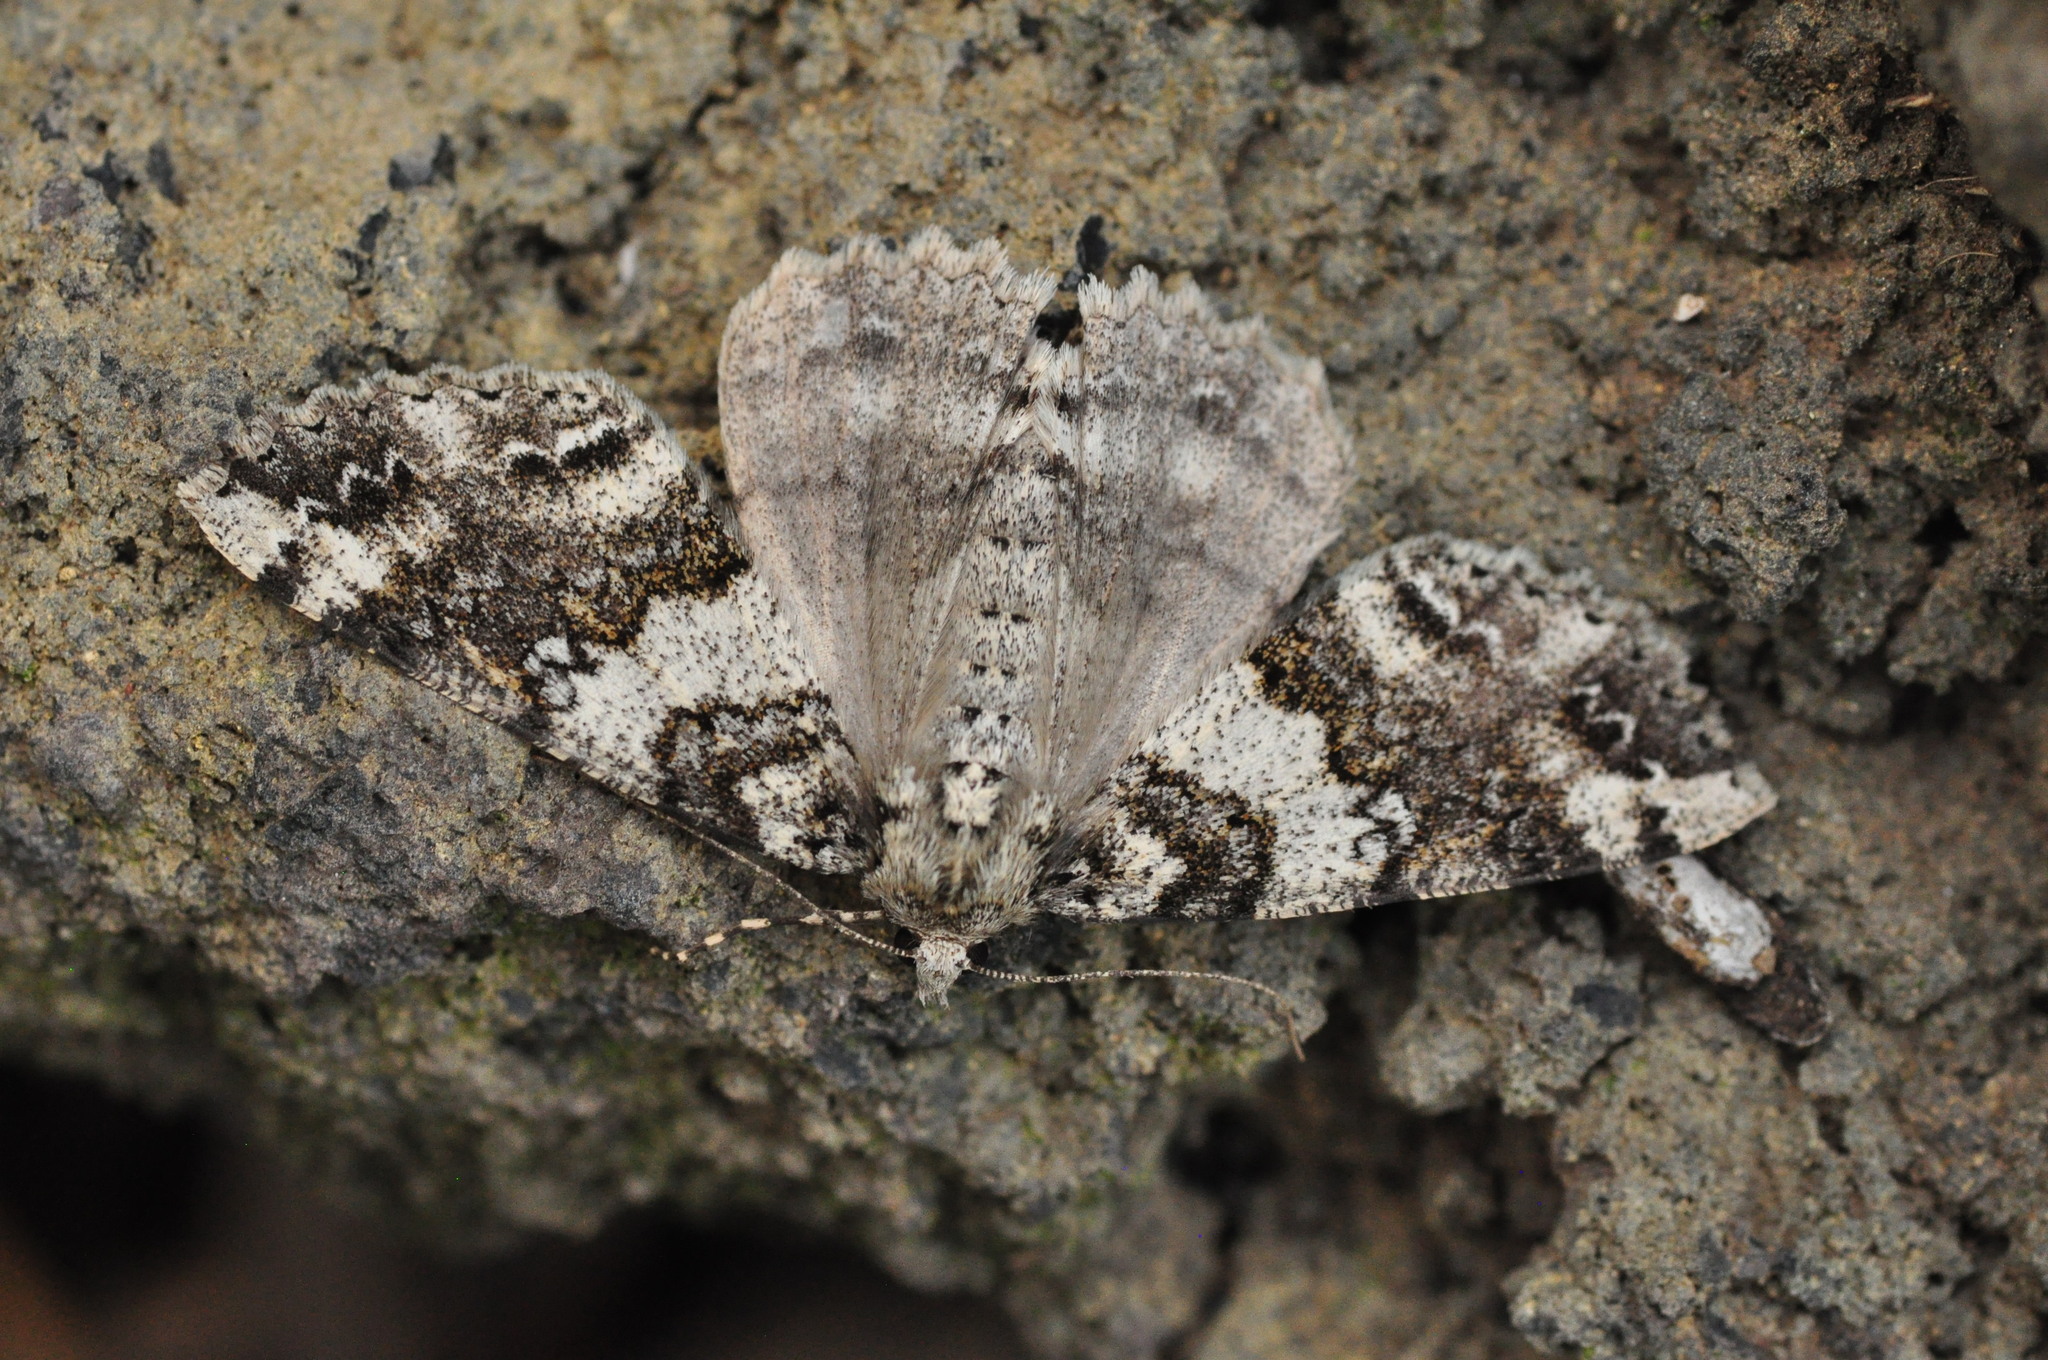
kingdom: Animalia
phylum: Arthropoda
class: Insecta
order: Lepidoptera
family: Geometridae
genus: Ascotis
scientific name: Ascotis fortunata
